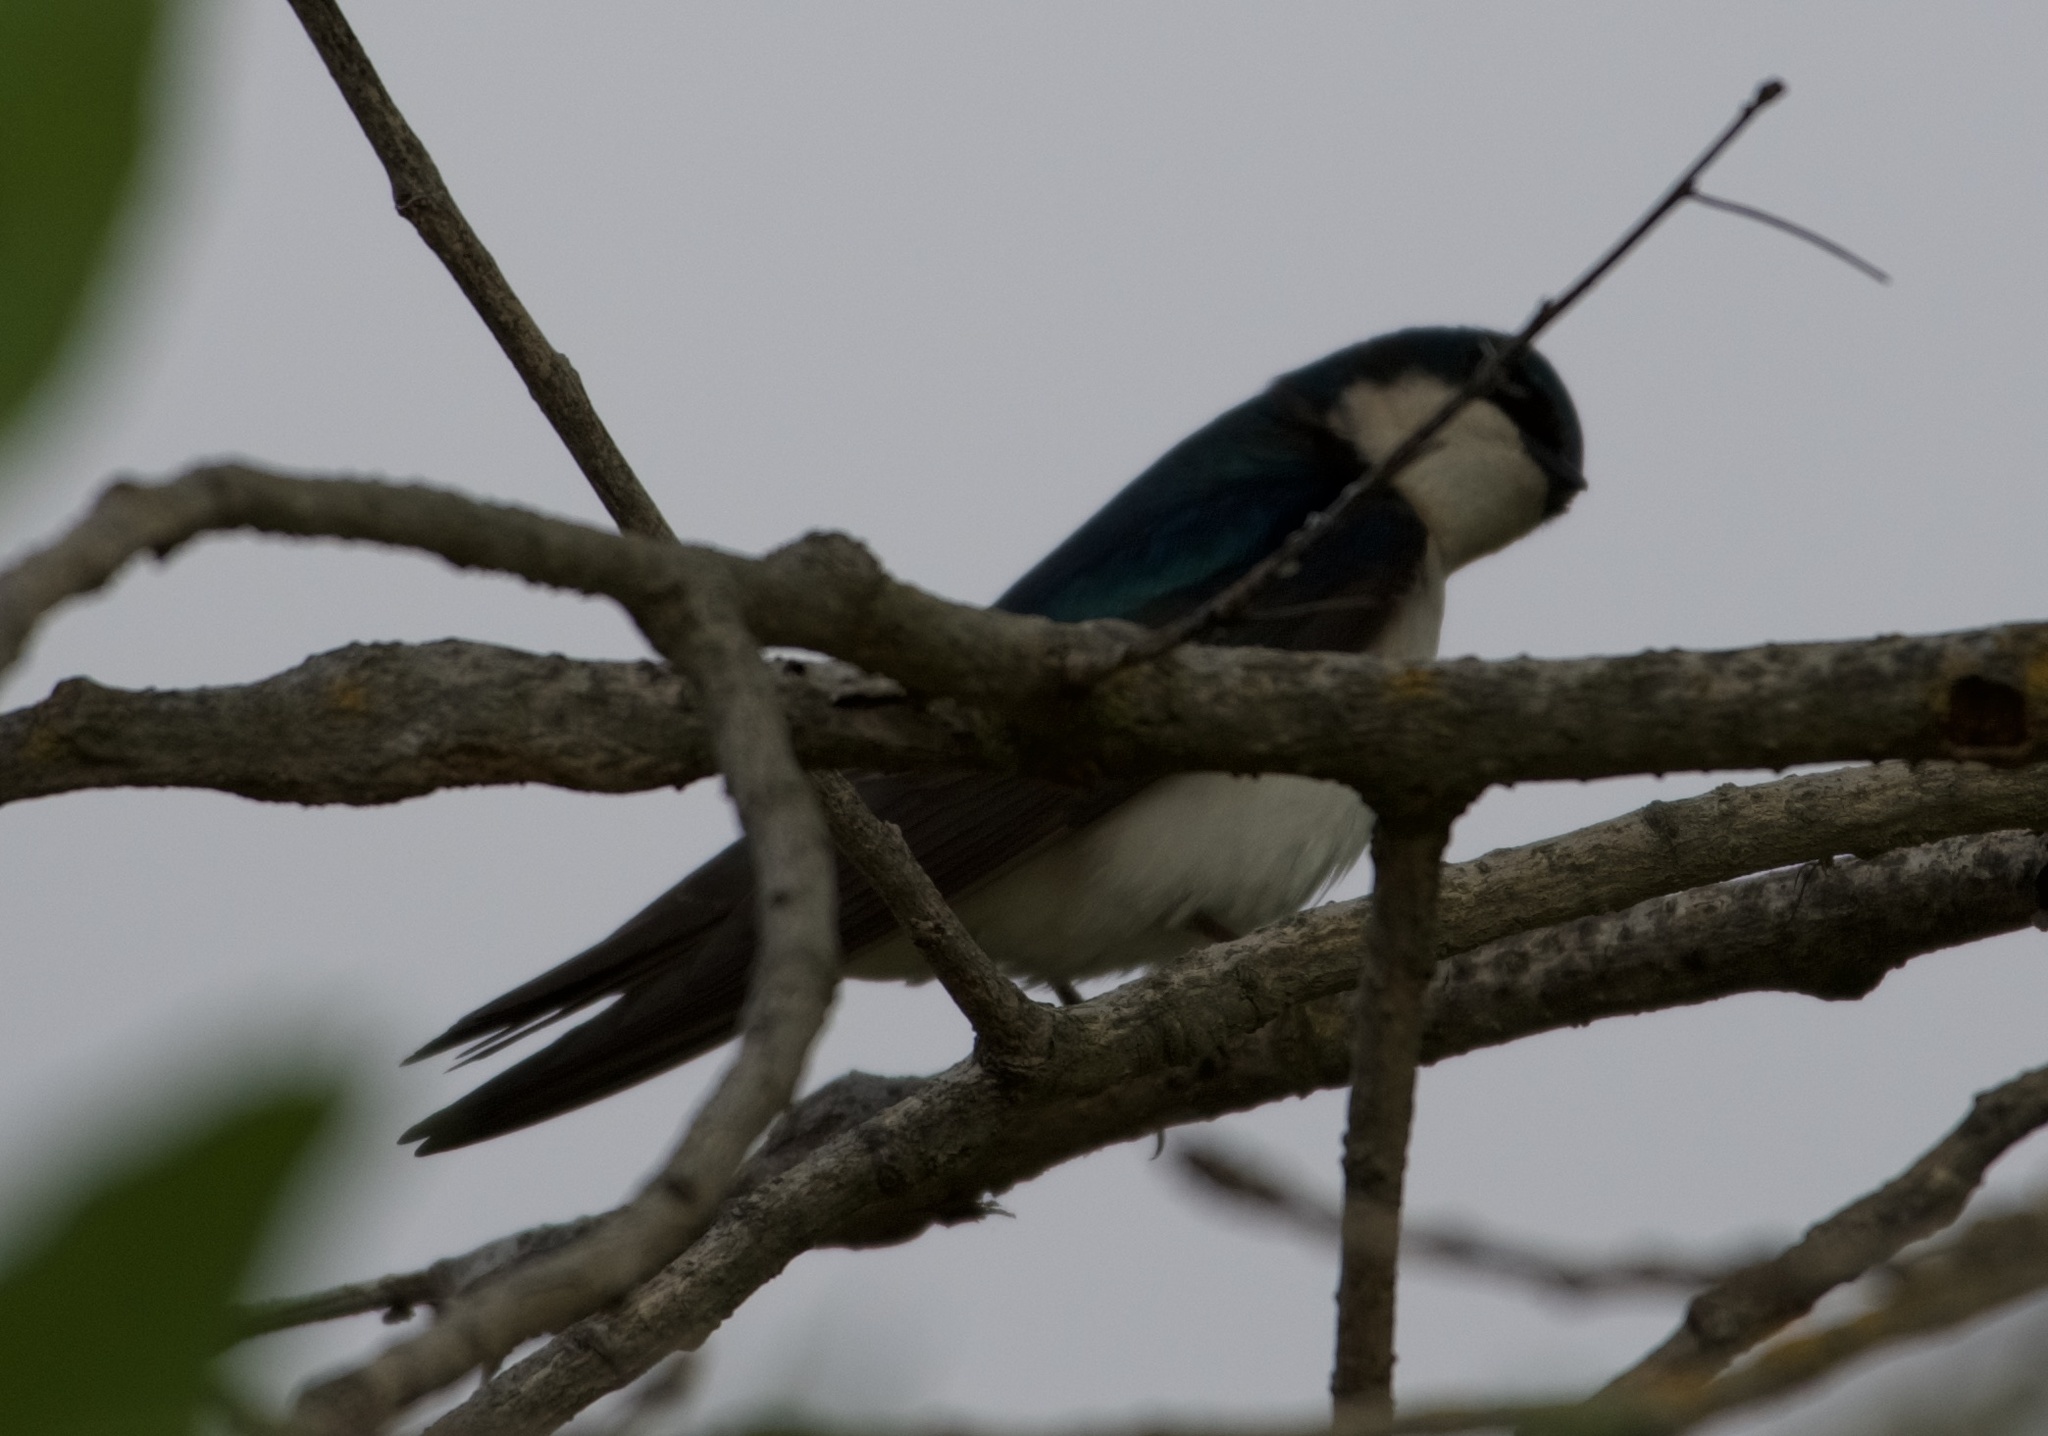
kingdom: Animalia
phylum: Chordata
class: Aves
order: Passeriformes
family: Hirundinidae
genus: Tachycineta
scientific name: Tachycineta bicolor
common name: Tree swallow
